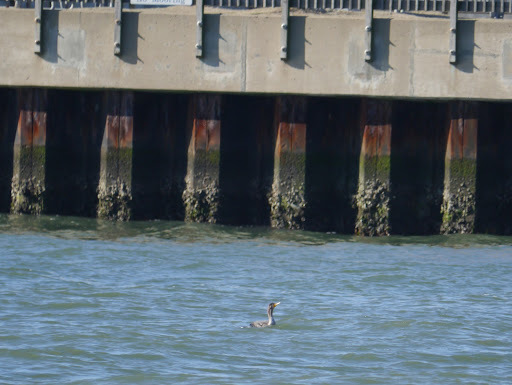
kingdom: Animalia
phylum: Chordata
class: Aves
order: Suliformes
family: Phalacrocoracidae
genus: Phalacrocorax
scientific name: Phalacrocorax auritus
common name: Double-crested cormorant
